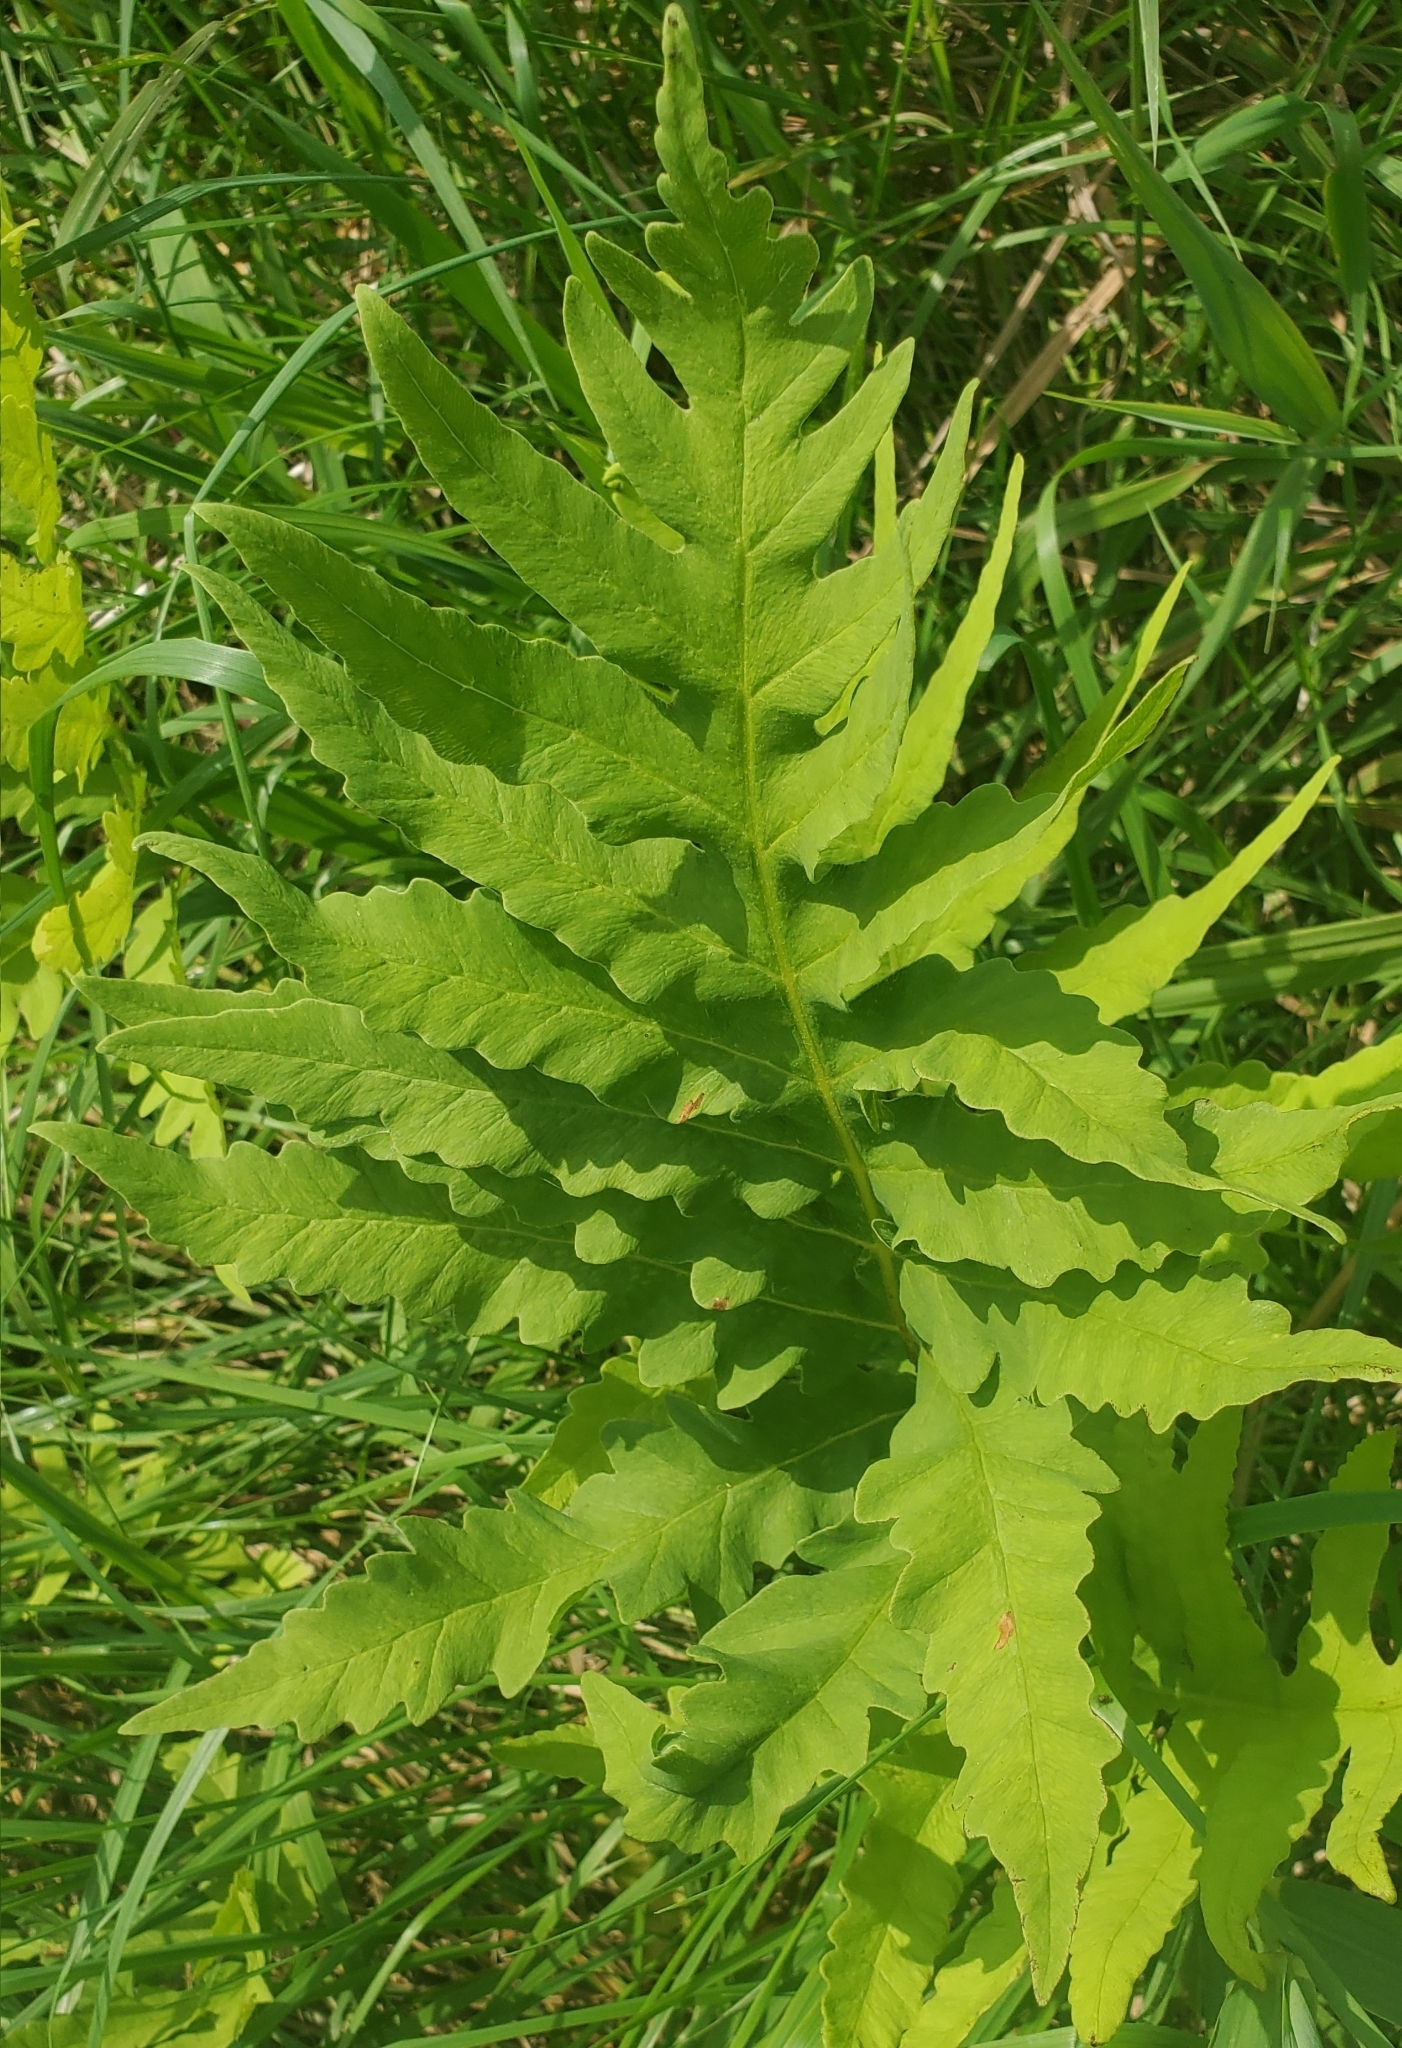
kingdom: Plantae
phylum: Tracheophyta
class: Polypodiopsida
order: Polypodiales
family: Onocleaceae
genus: Onoclea
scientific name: Onoclea sensibilis
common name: Sensitive fern
